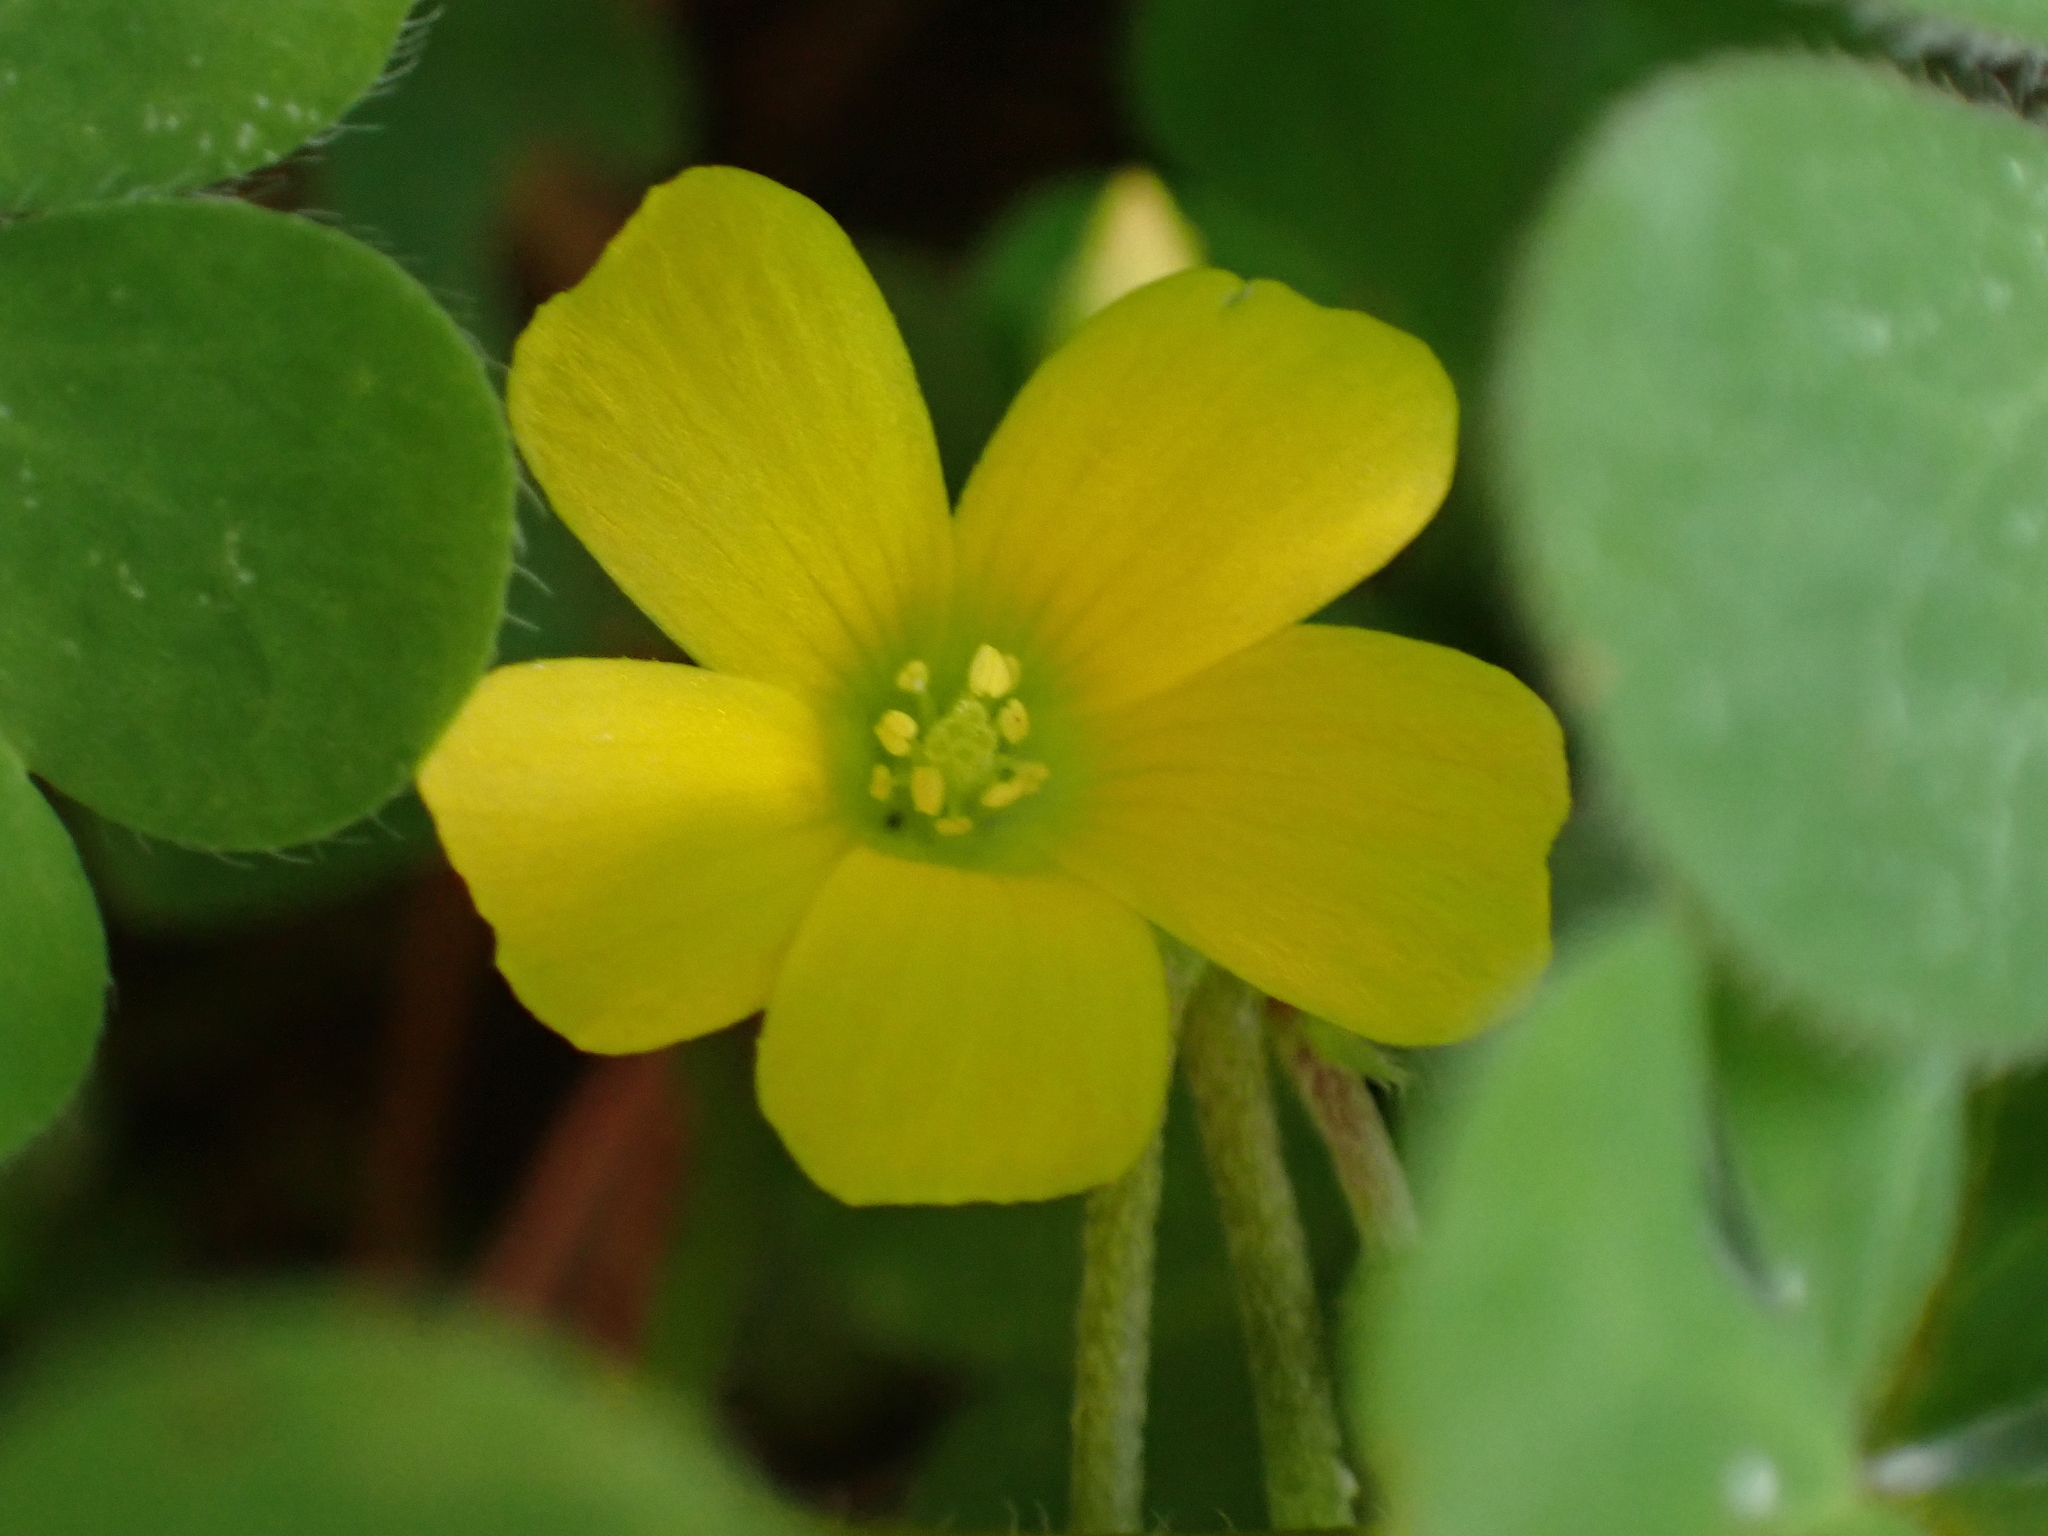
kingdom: Plantae
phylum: Tracheophyta
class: Magnoliopsida
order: Oxalidales
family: Oxalidaceae
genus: Oxalis
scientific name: Oxalis corniculata
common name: Procumbent yellow-sorrel
